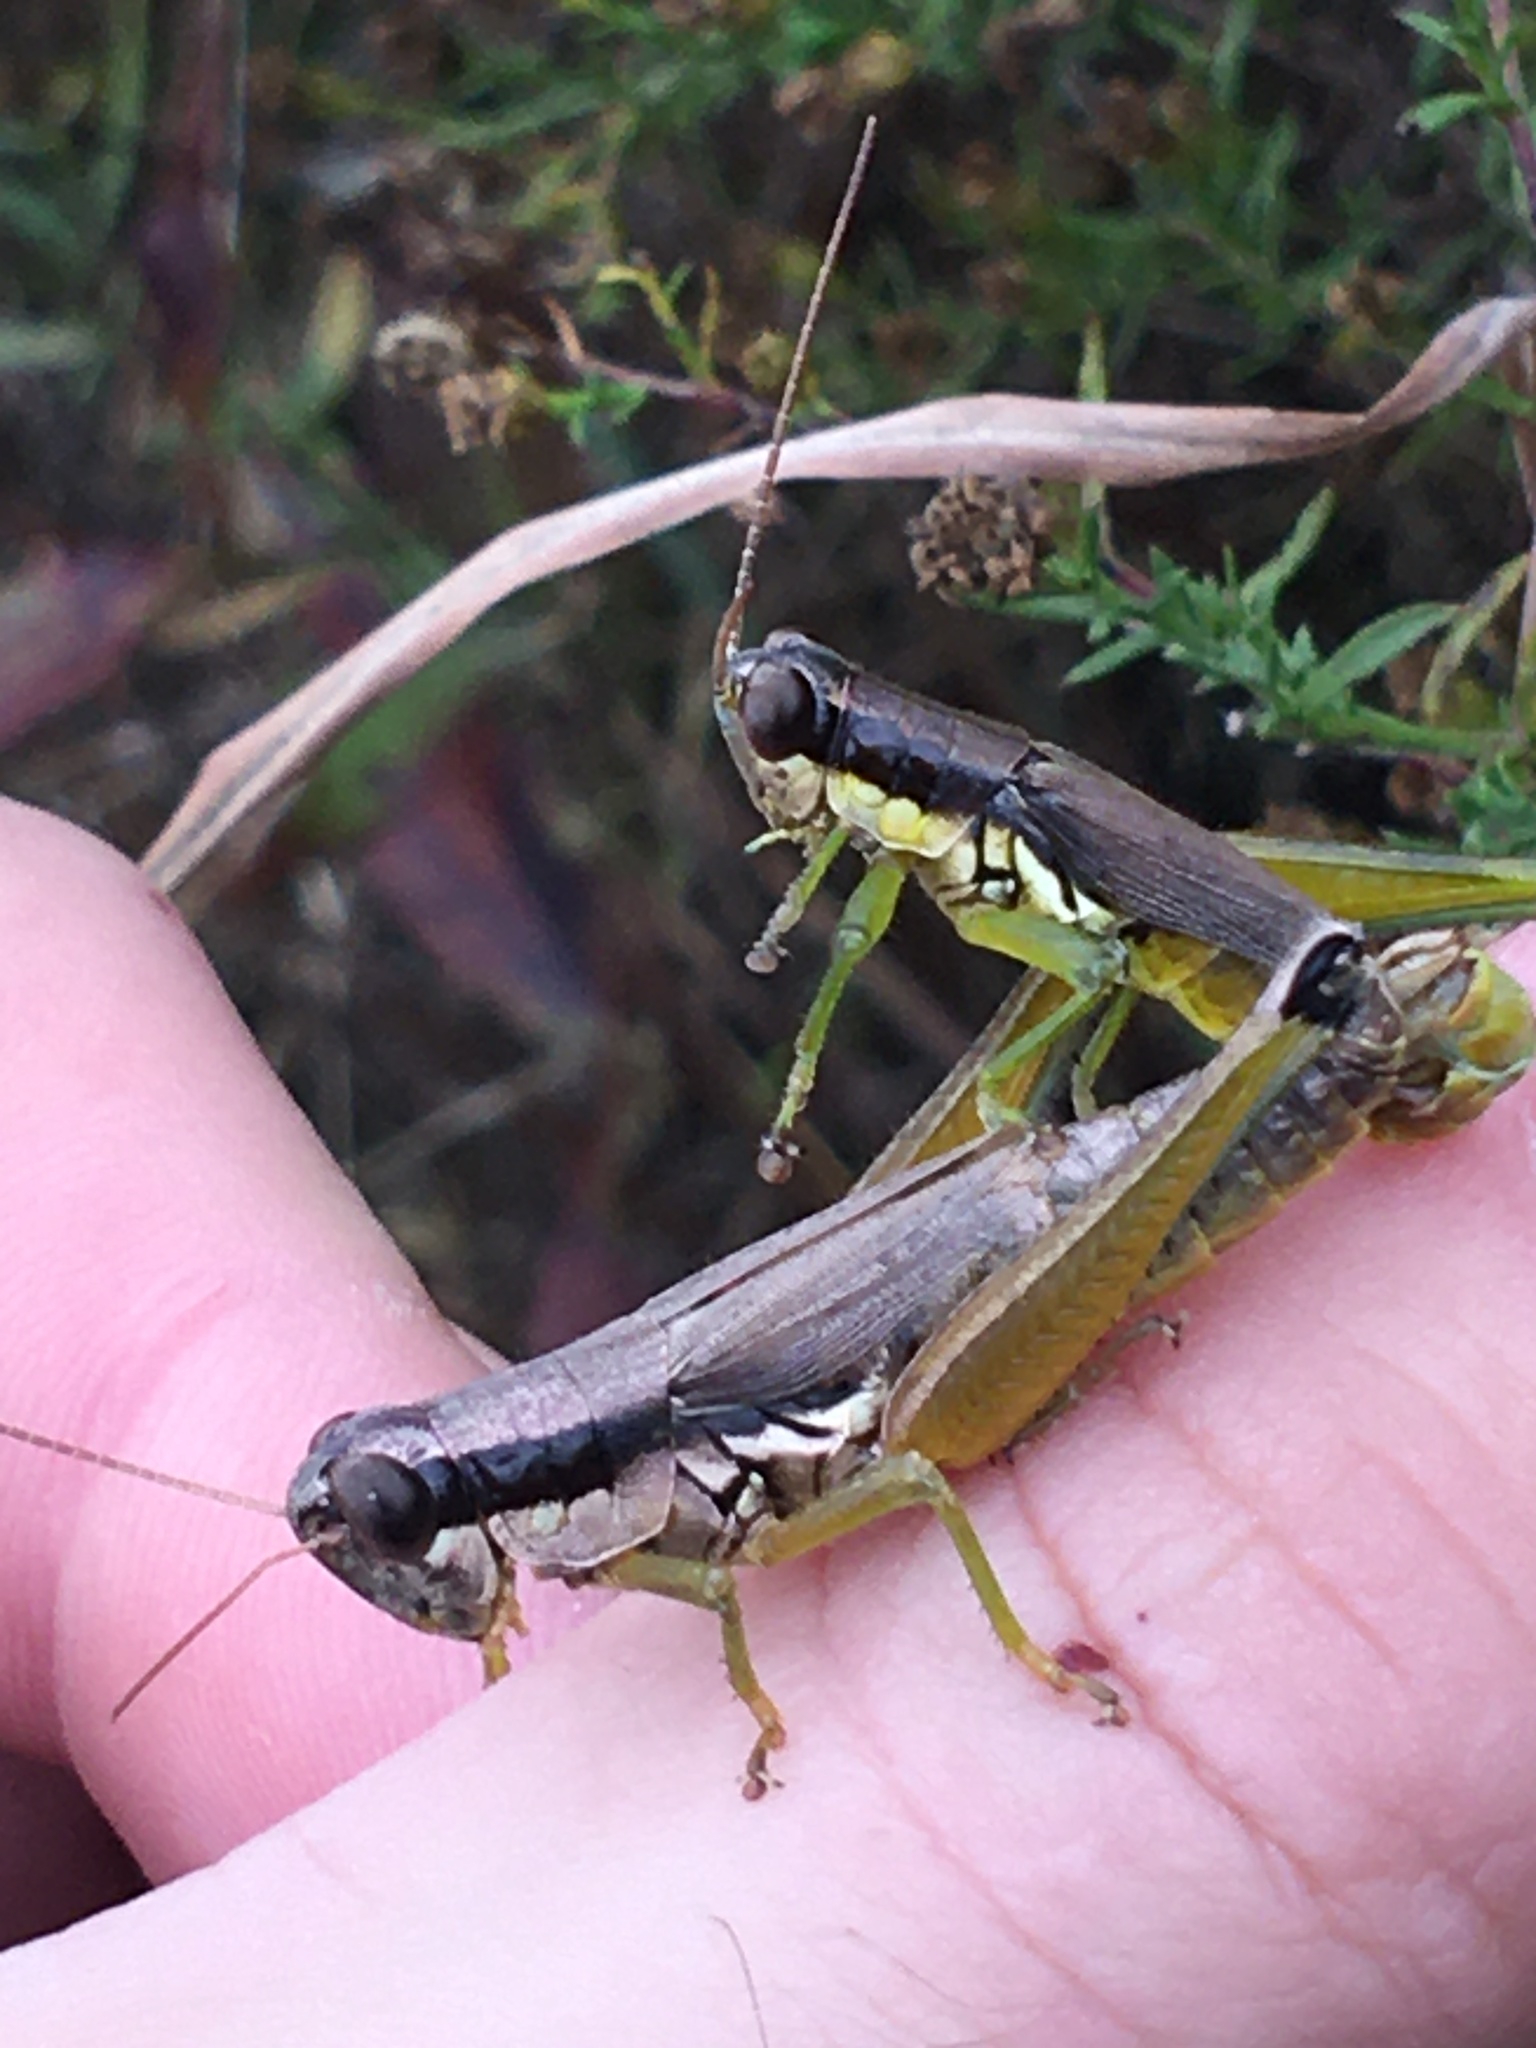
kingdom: Animalia
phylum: Arthropoda
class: Insecta
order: Orthoptera
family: Acrididae
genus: Paroxya
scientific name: Paroxya clavuligera
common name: Olive-green swamp grasshopper
